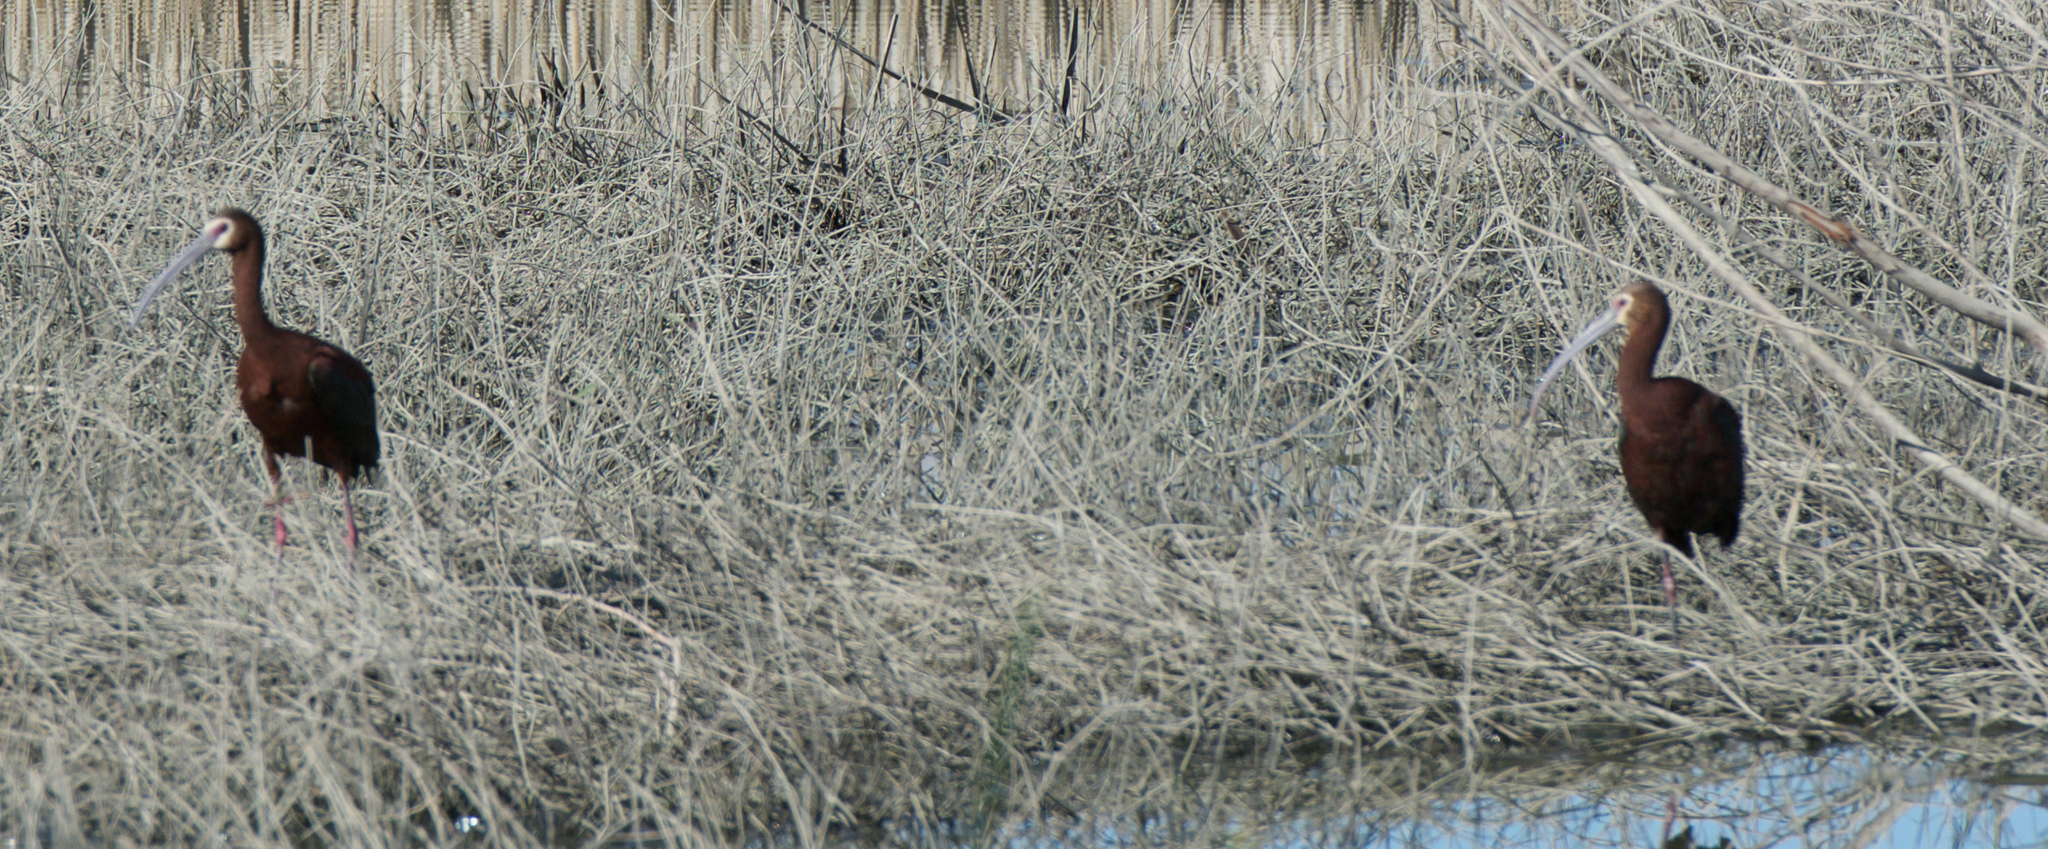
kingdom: Animalia
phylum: Chordata
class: Aves
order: Pelecaniformes
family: Threskiornithidae
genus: Plegadis
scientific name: Plegadis chihi
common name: White-faced ibis
